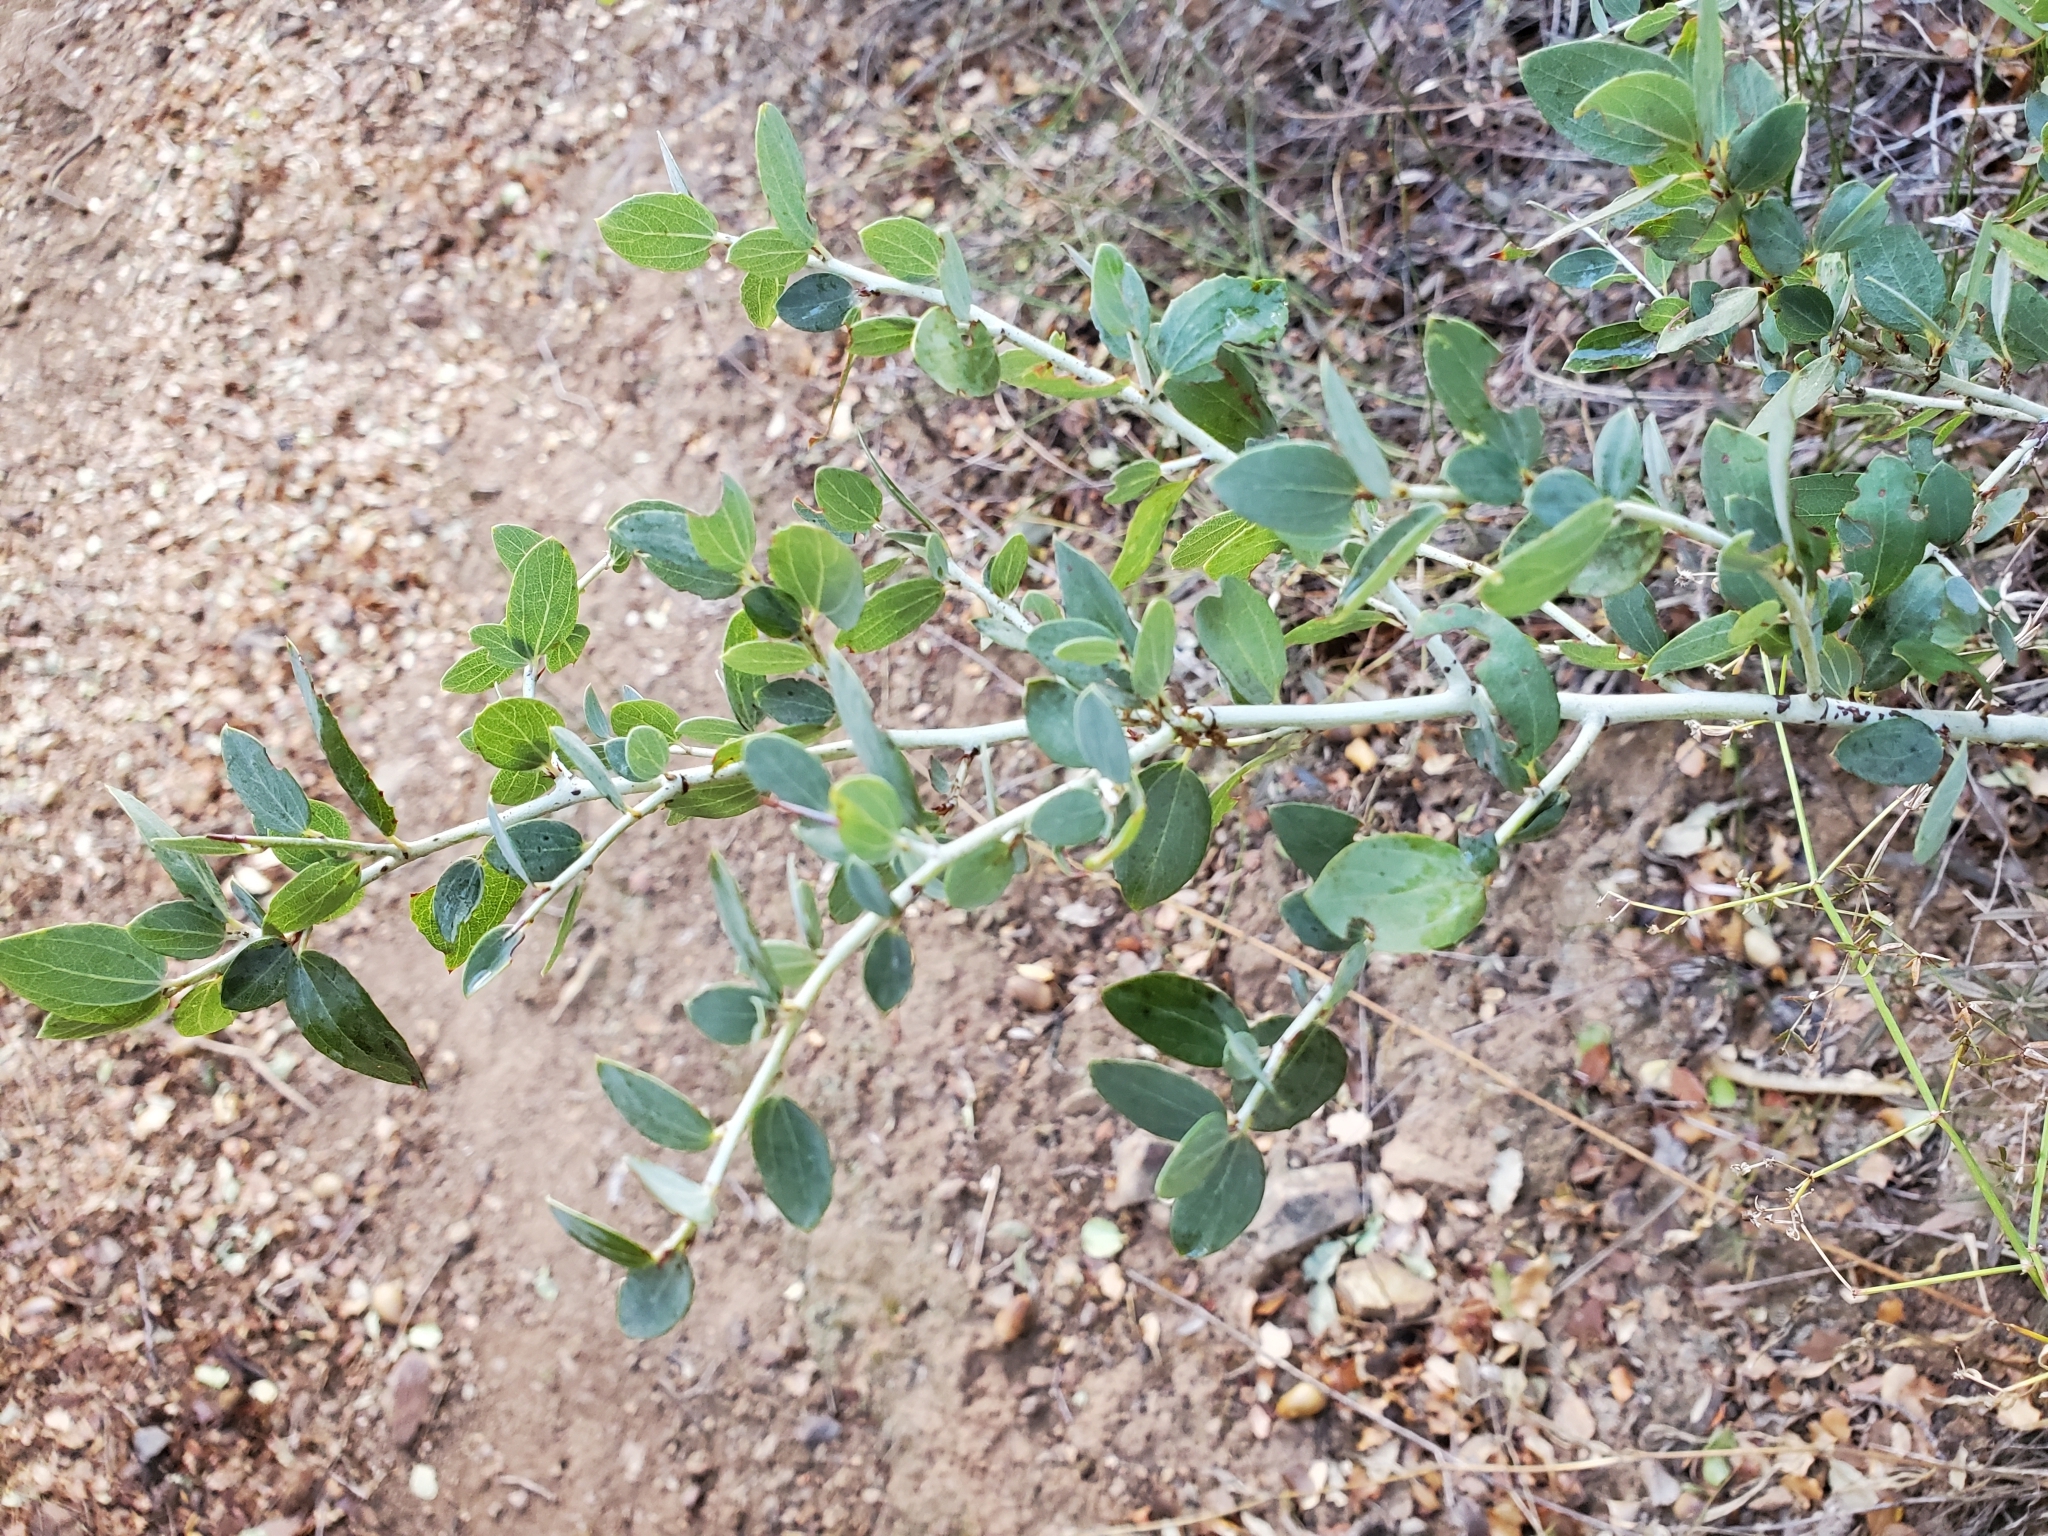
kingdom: Plantae
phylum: Tracheophyta
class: Magnoliopsida
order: Rosales
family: Rhamnaceae
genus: Ceanothus
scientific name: Ceanothus leucodermis
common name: Chaparral whitethorn
